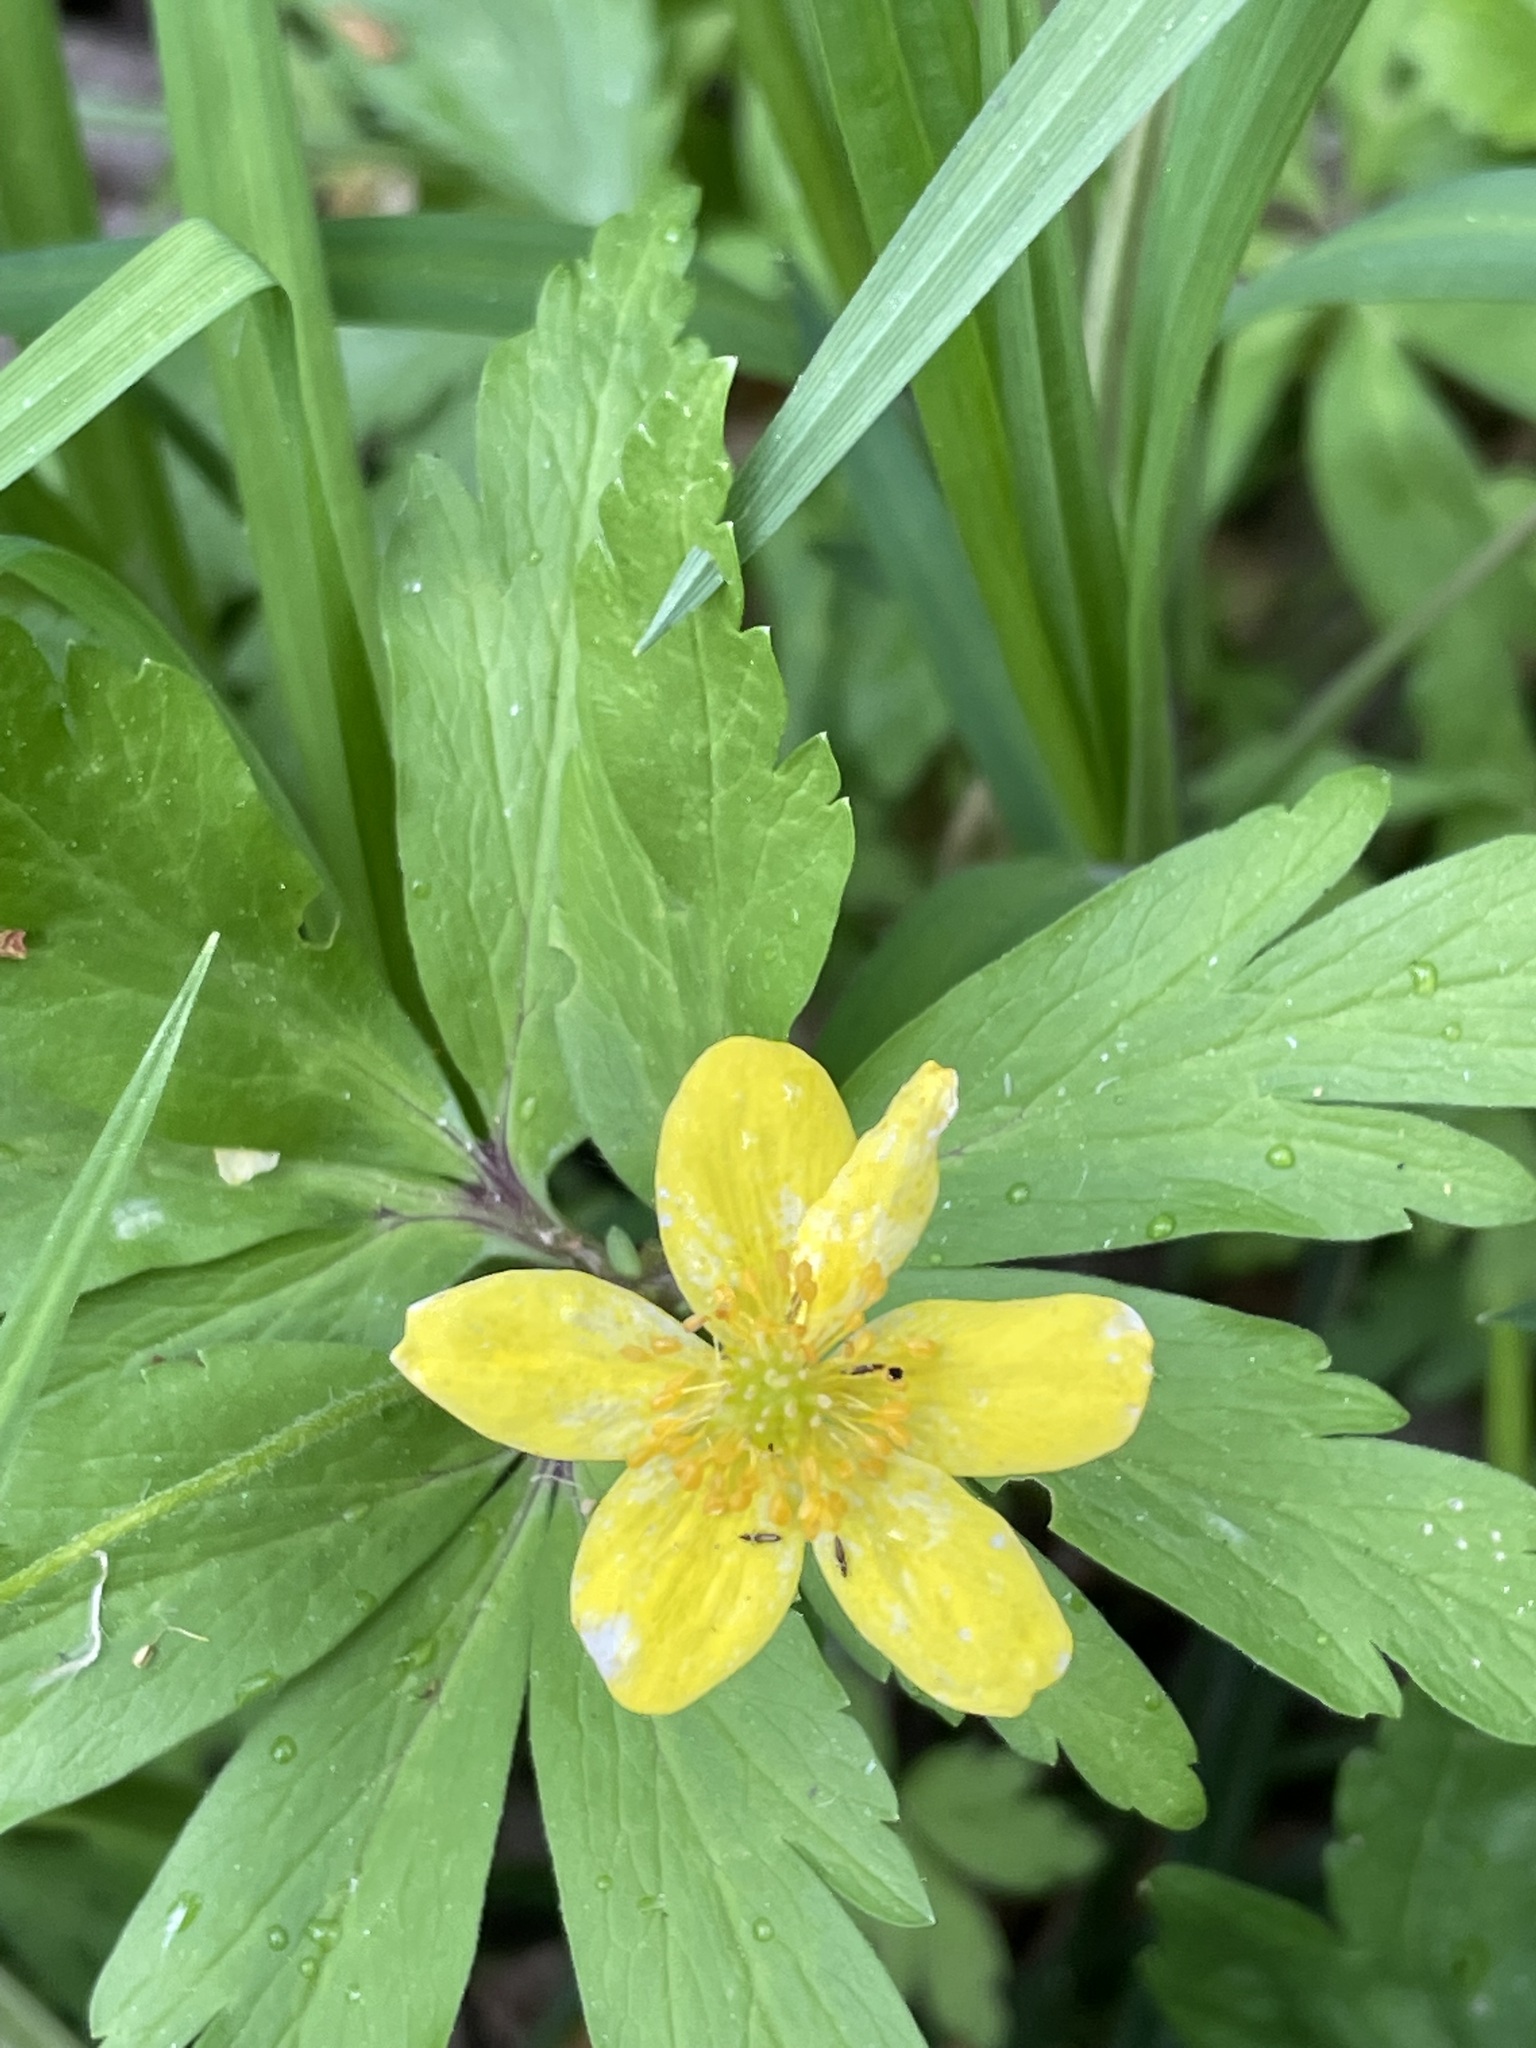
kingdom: Plantae
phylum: Tracheophyta
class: Magnoliopsida
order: Ranunculales
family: Ranunculaceae
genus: Anemone
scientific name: Anemone ranunculoides
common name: Yellow anemone
